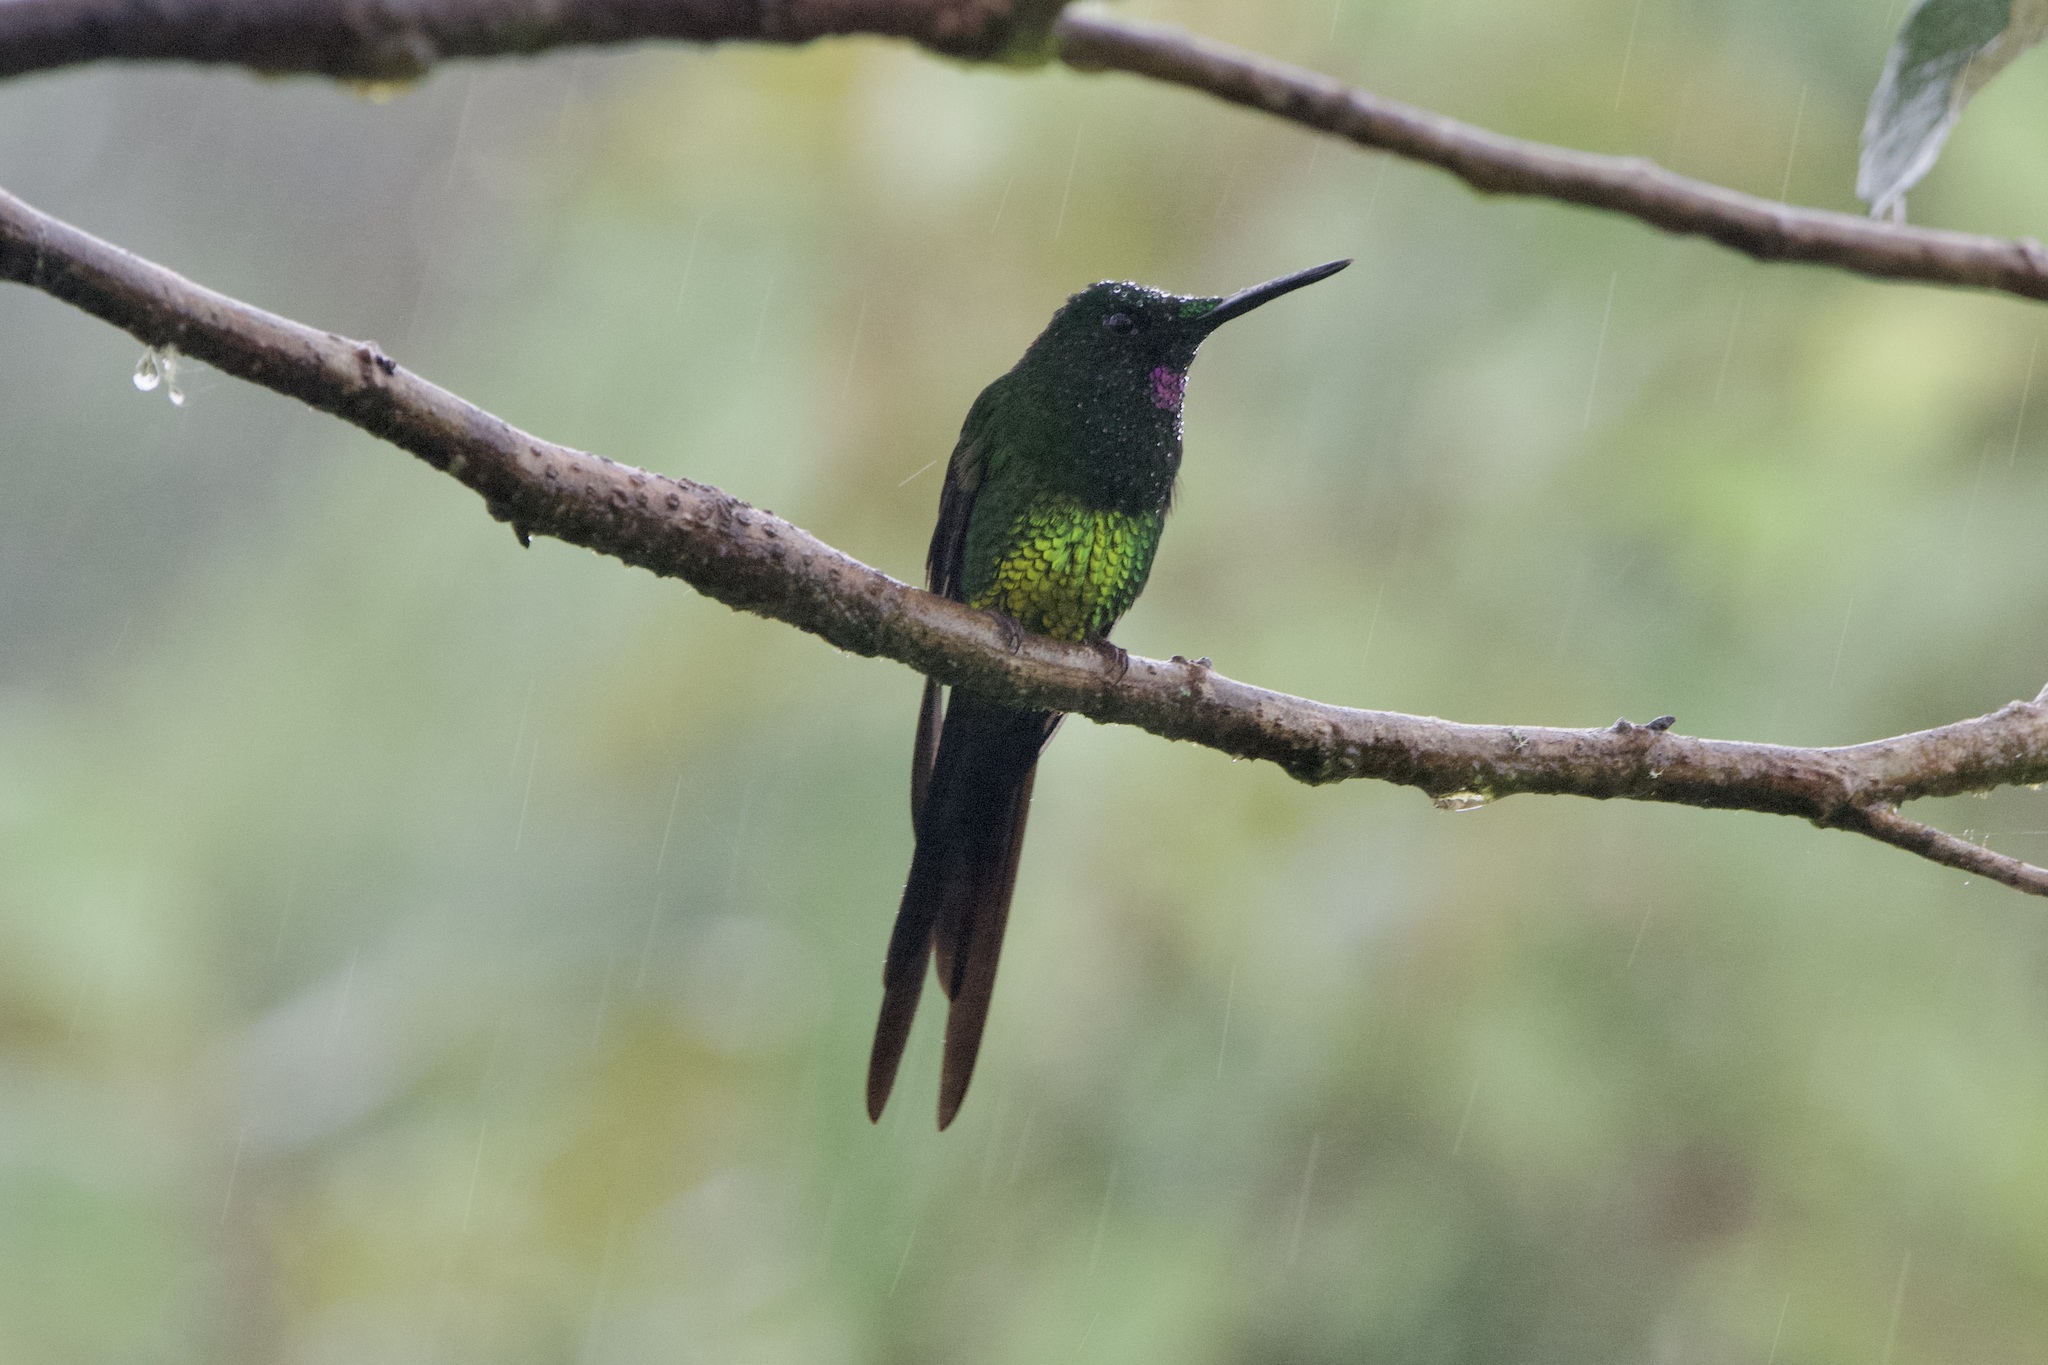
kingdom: Animalia
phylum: Chordata
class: Aves
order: Apodiformes
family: Trochilidae
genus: Heliodoxa
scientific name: Heliodoxa imperatrix
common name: Empress brilliant
